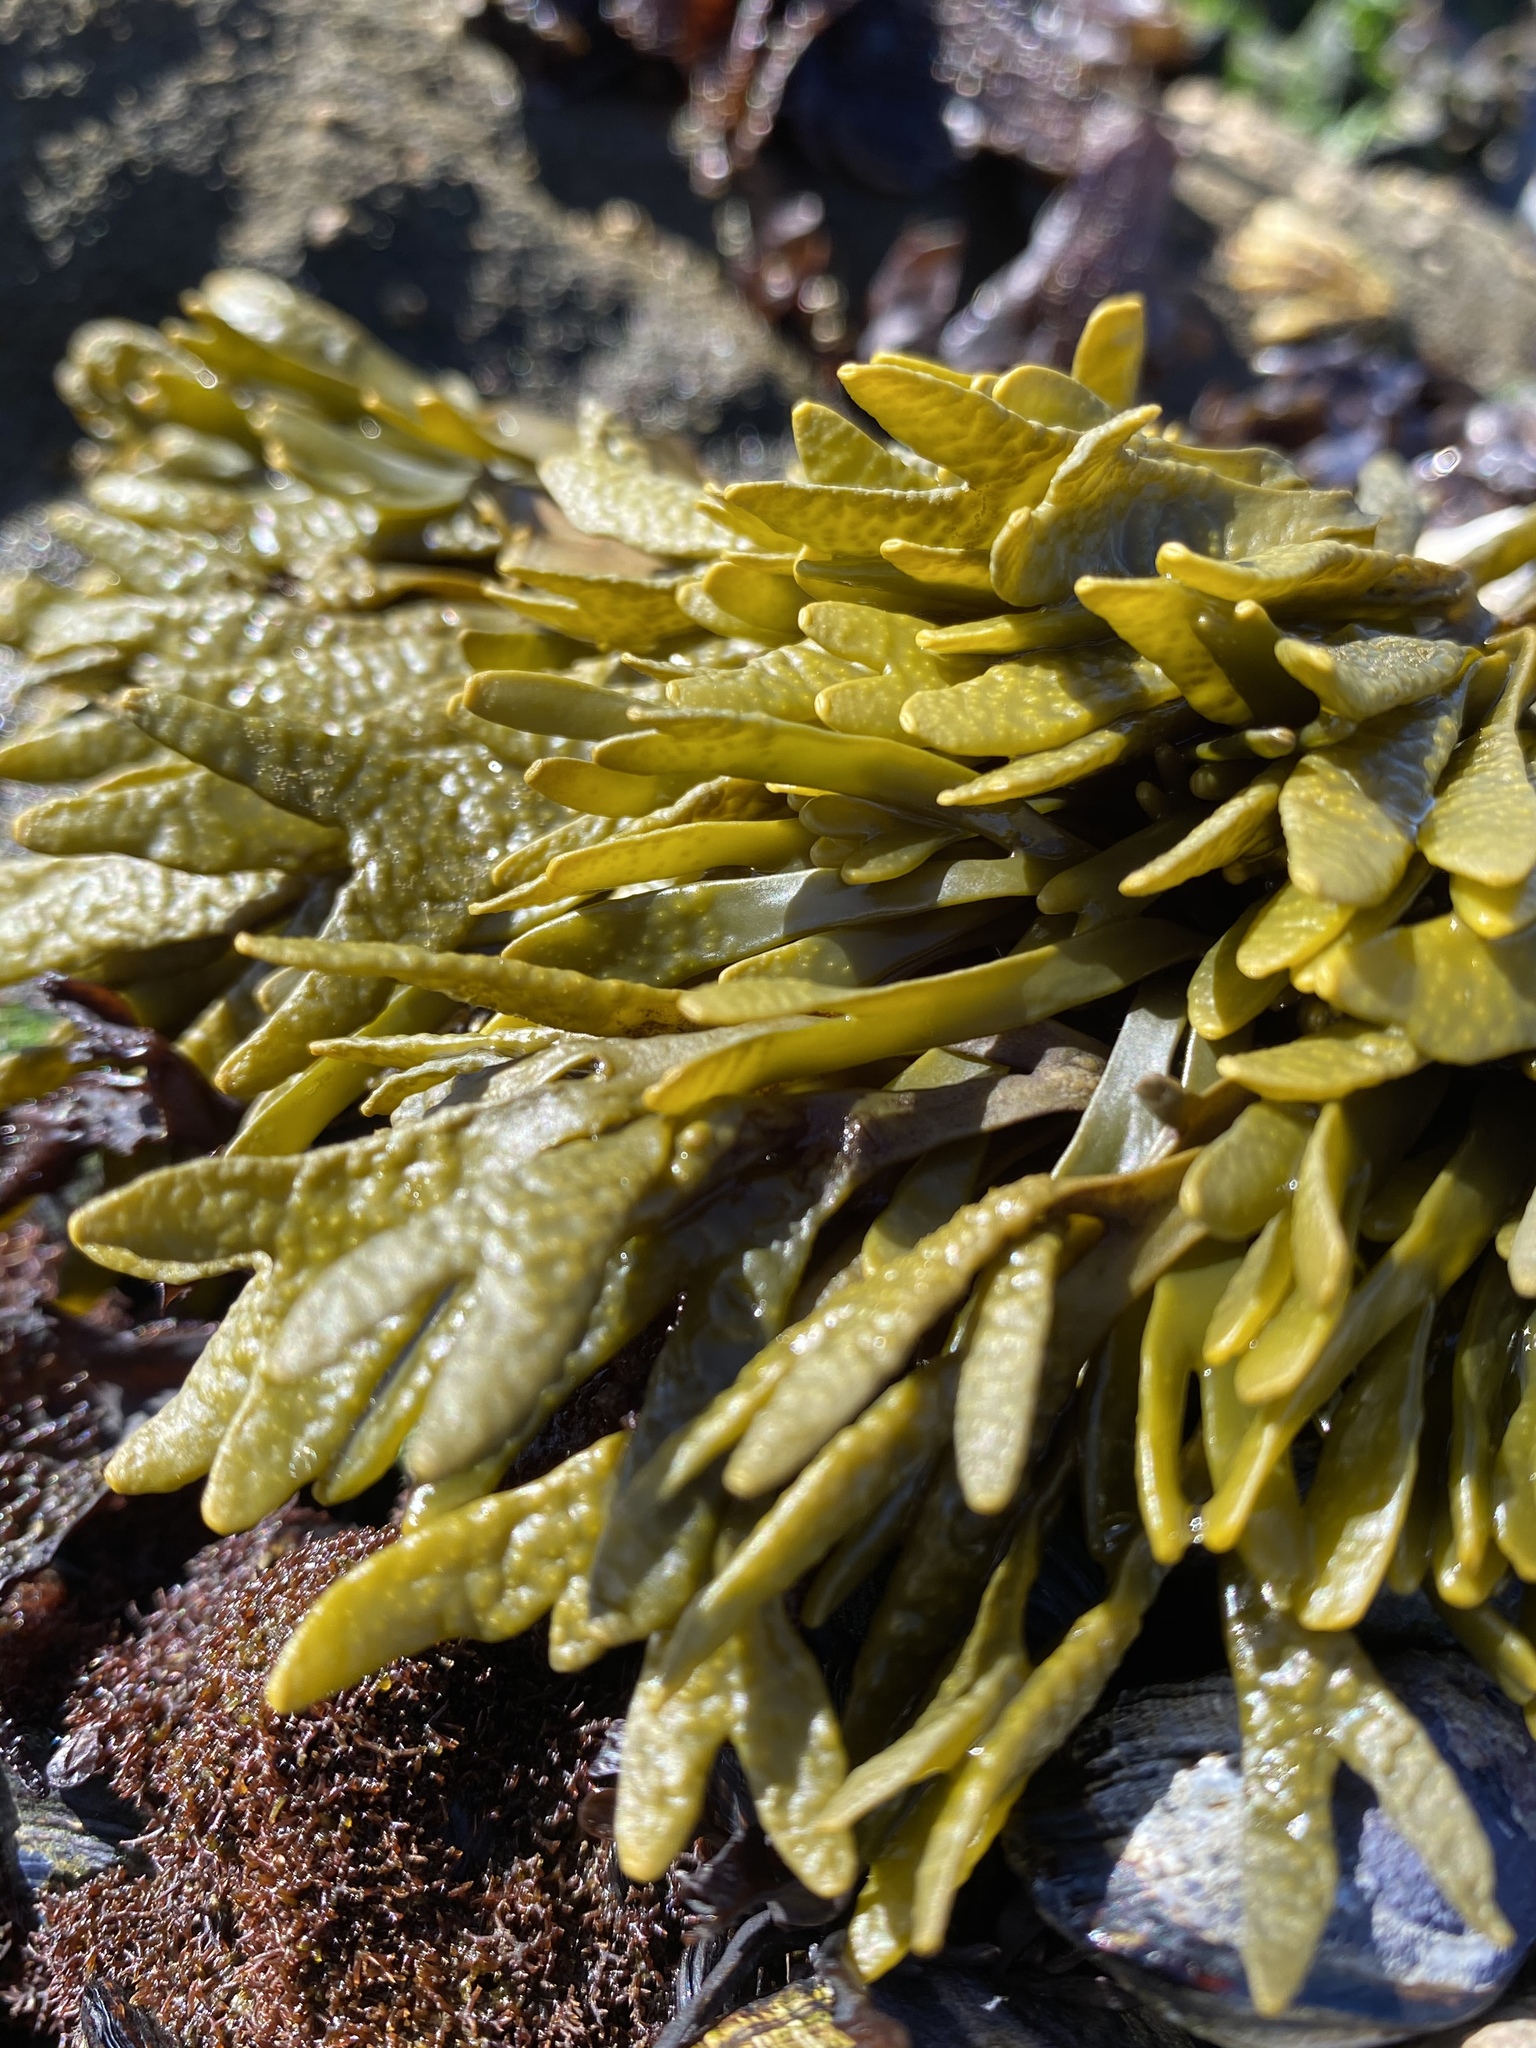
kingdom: Chromista
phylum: Ochrophyta
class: Phaeophyceae
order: Fucales
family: Fucaceae
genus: Pelvetiopsis
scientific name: Pelvetiopsis limitata
